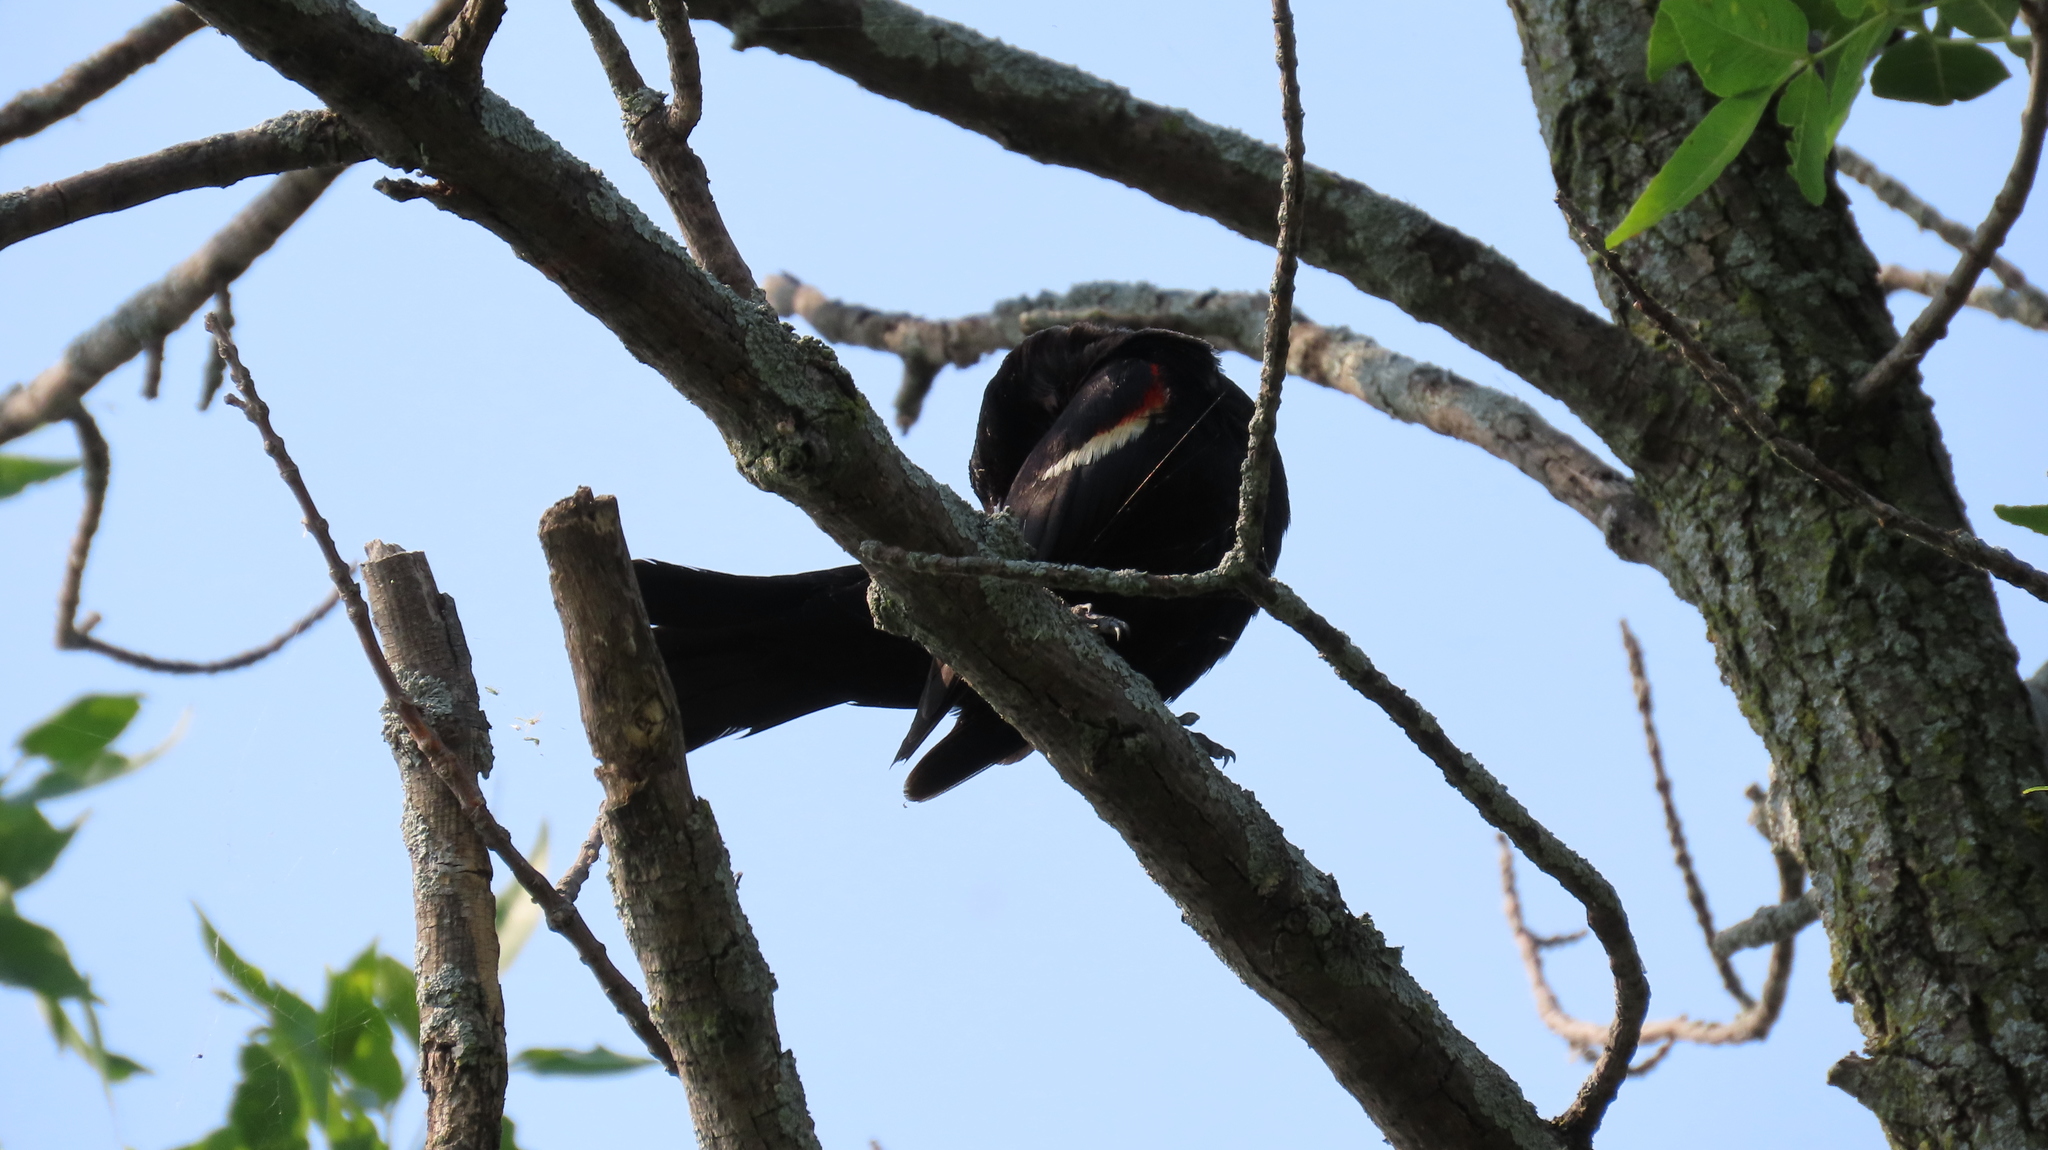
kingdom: Animalia
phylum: Chordata
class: Aves
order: Passeriformes
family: Icteridae
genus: Agelaius
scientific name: Agelaius phoeniceus
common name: Red-winged blackbird
